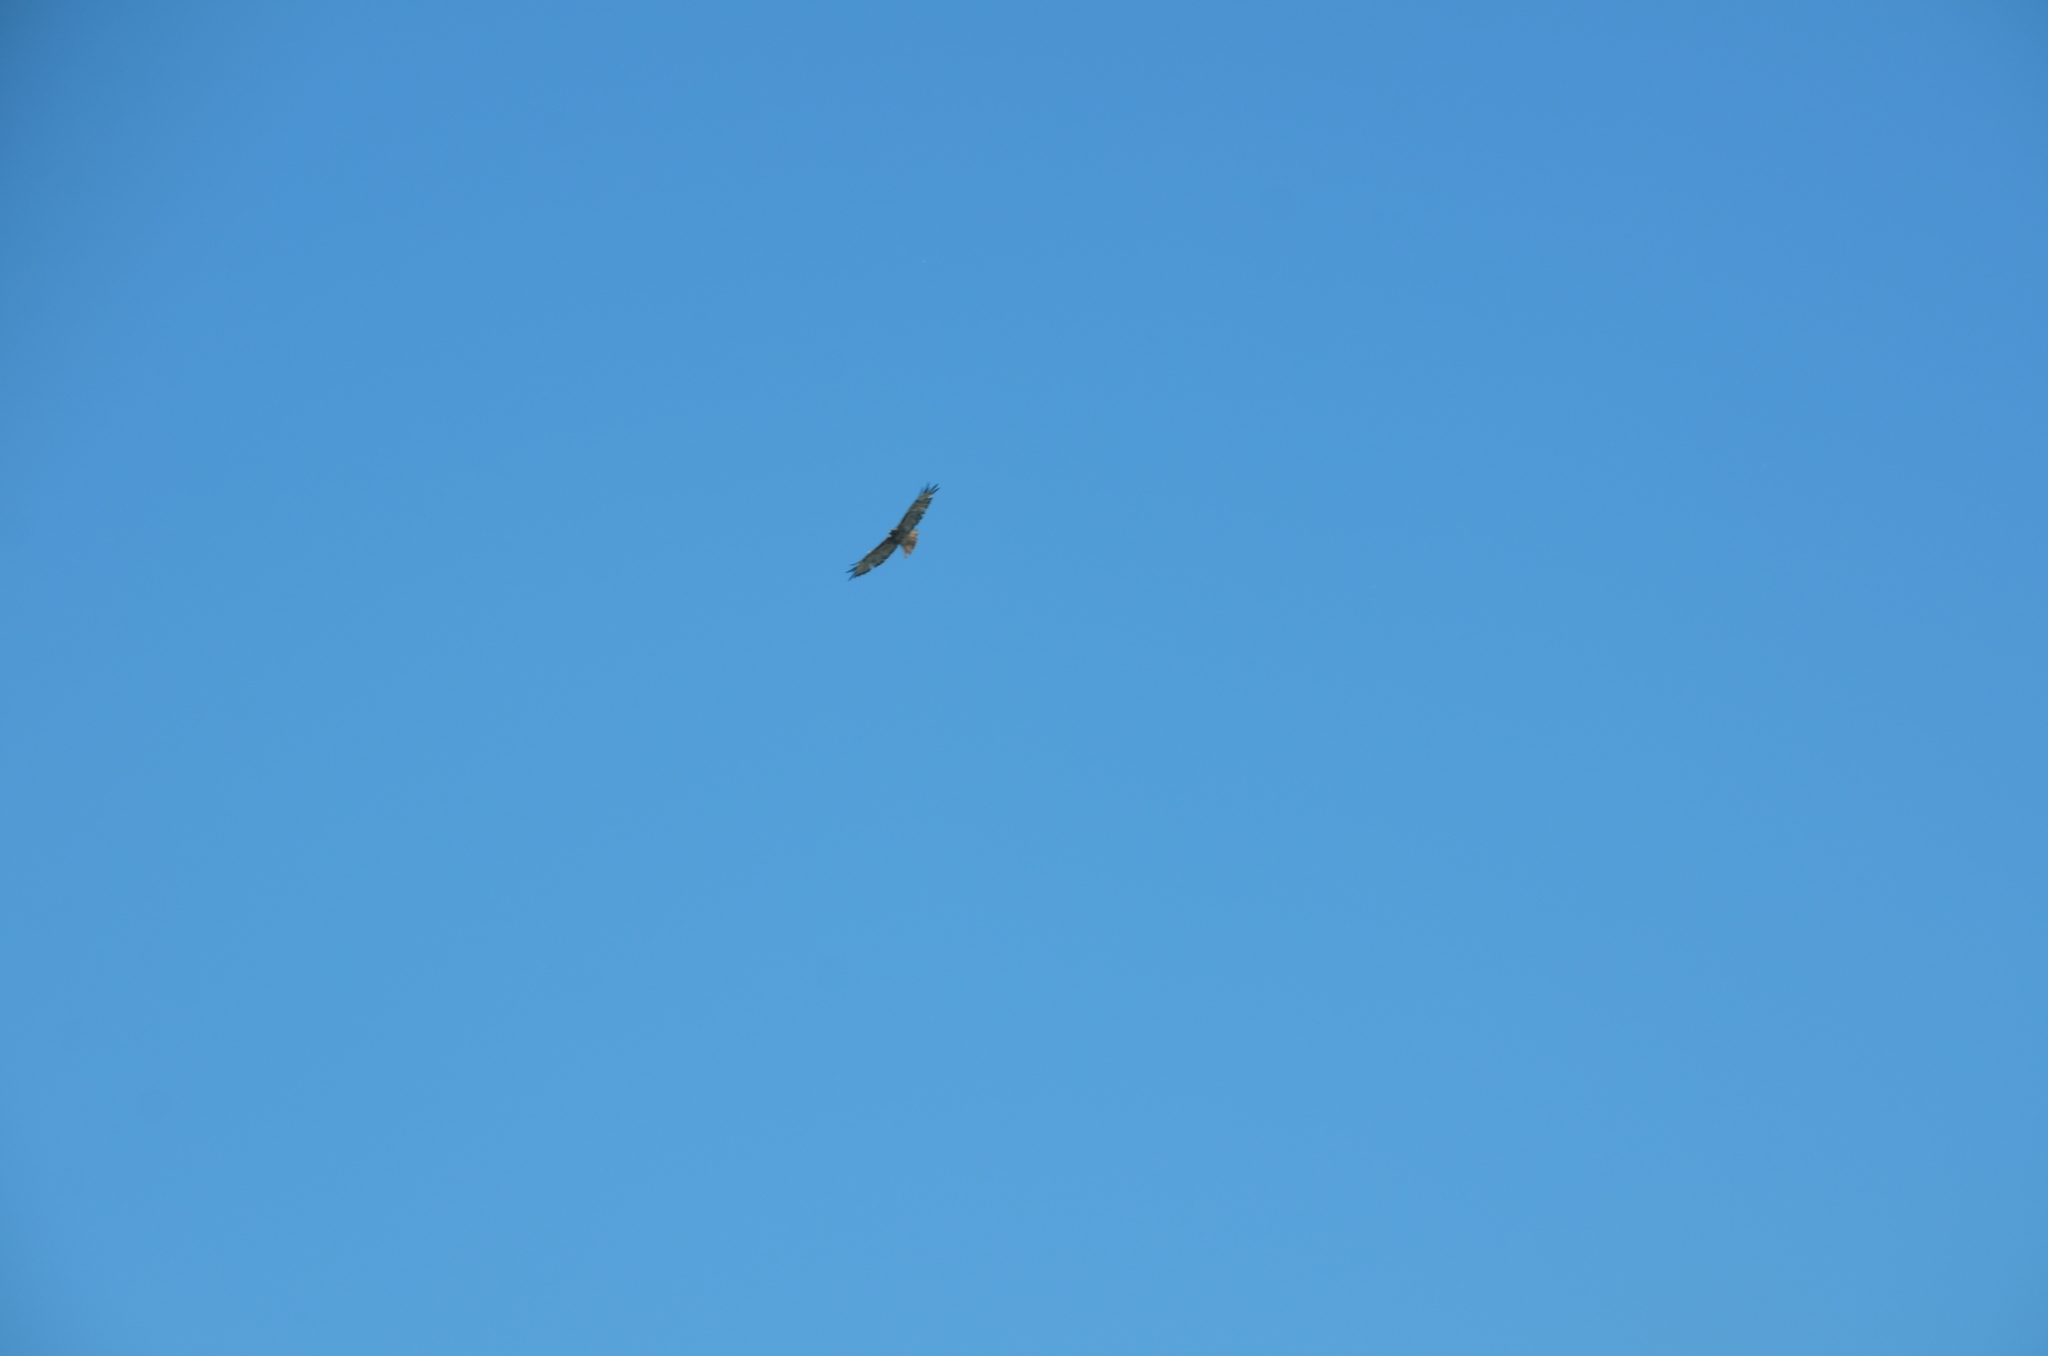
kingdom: Animalia
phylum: Chordata
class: Aves
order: Accipitriformes
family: Accipitridae
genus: Buteo
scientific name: Buteo jamaicensis
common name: Red-tailed hawk
